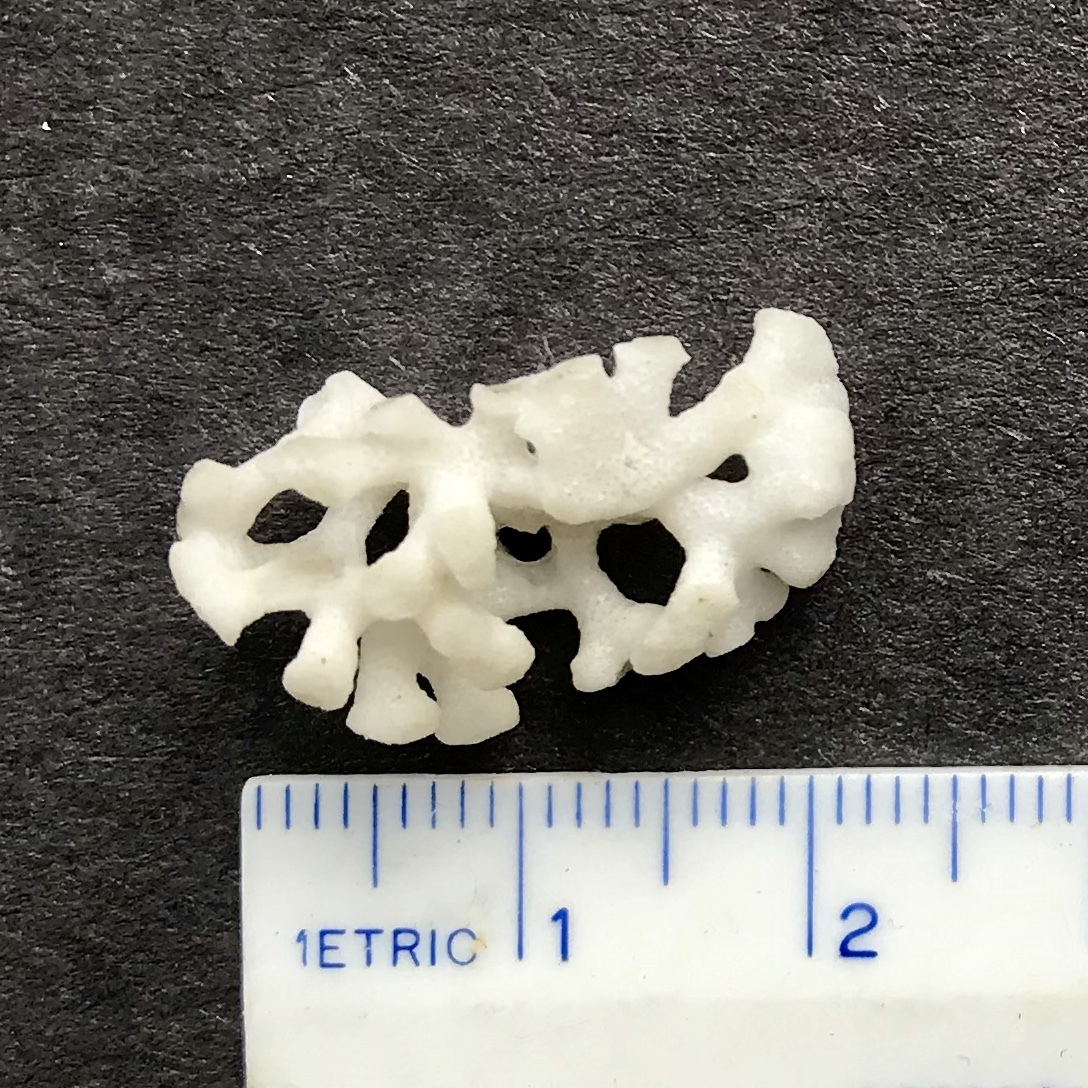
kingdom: Animalia
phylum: Bryozoa
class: Stenolaemata
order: Cyclostomatida
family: Heteroporidae
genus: Heteropora
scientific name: Heteropora pacifica
